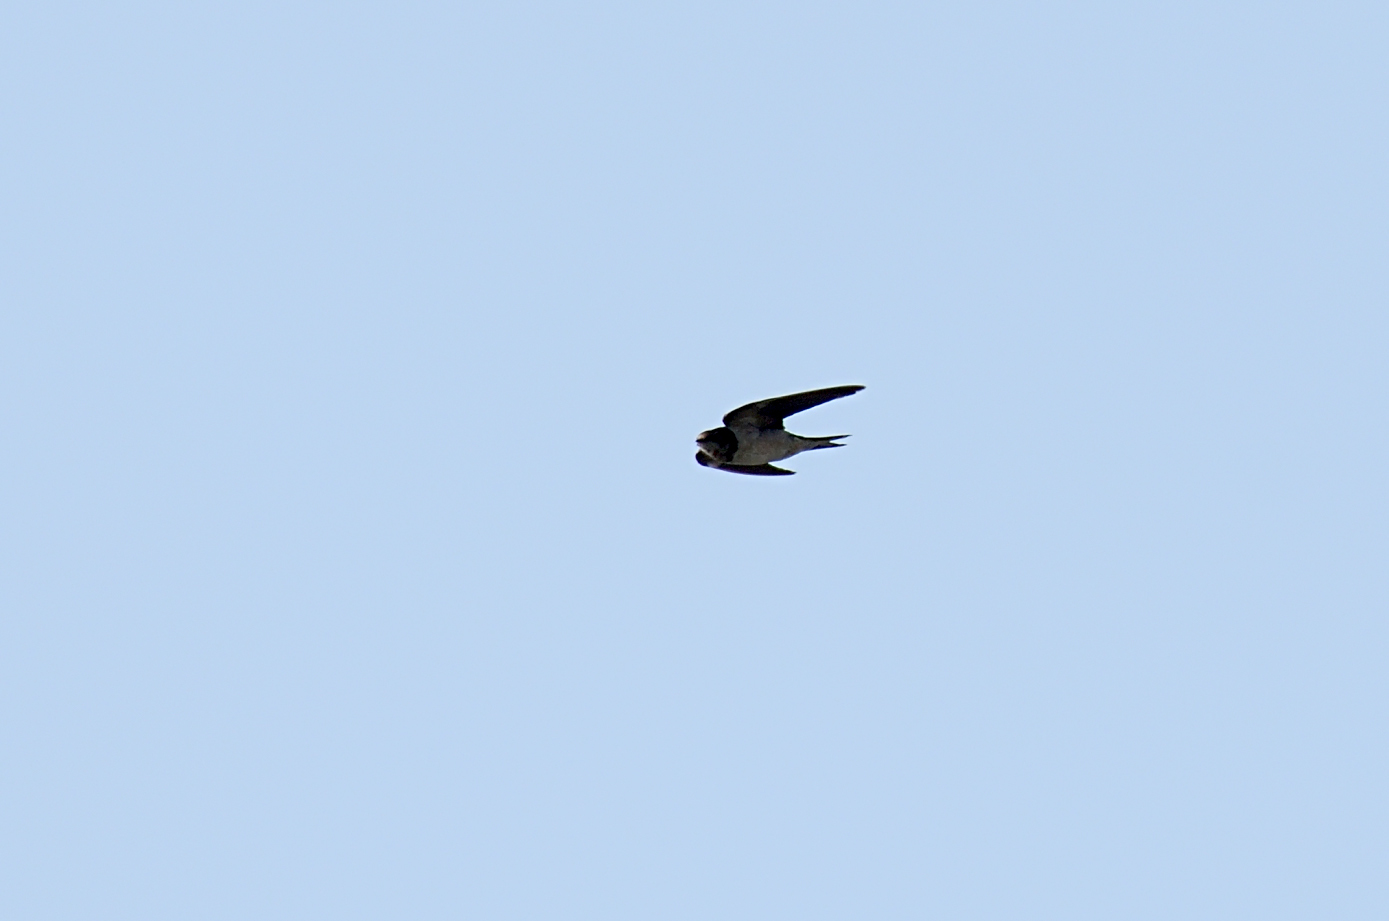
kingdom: Animalia
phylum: Chordata
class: Aves
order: Passeriformes
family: Hirundinidae
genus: Hirundo
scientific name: Hirundo rustica
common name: Barn swallow
